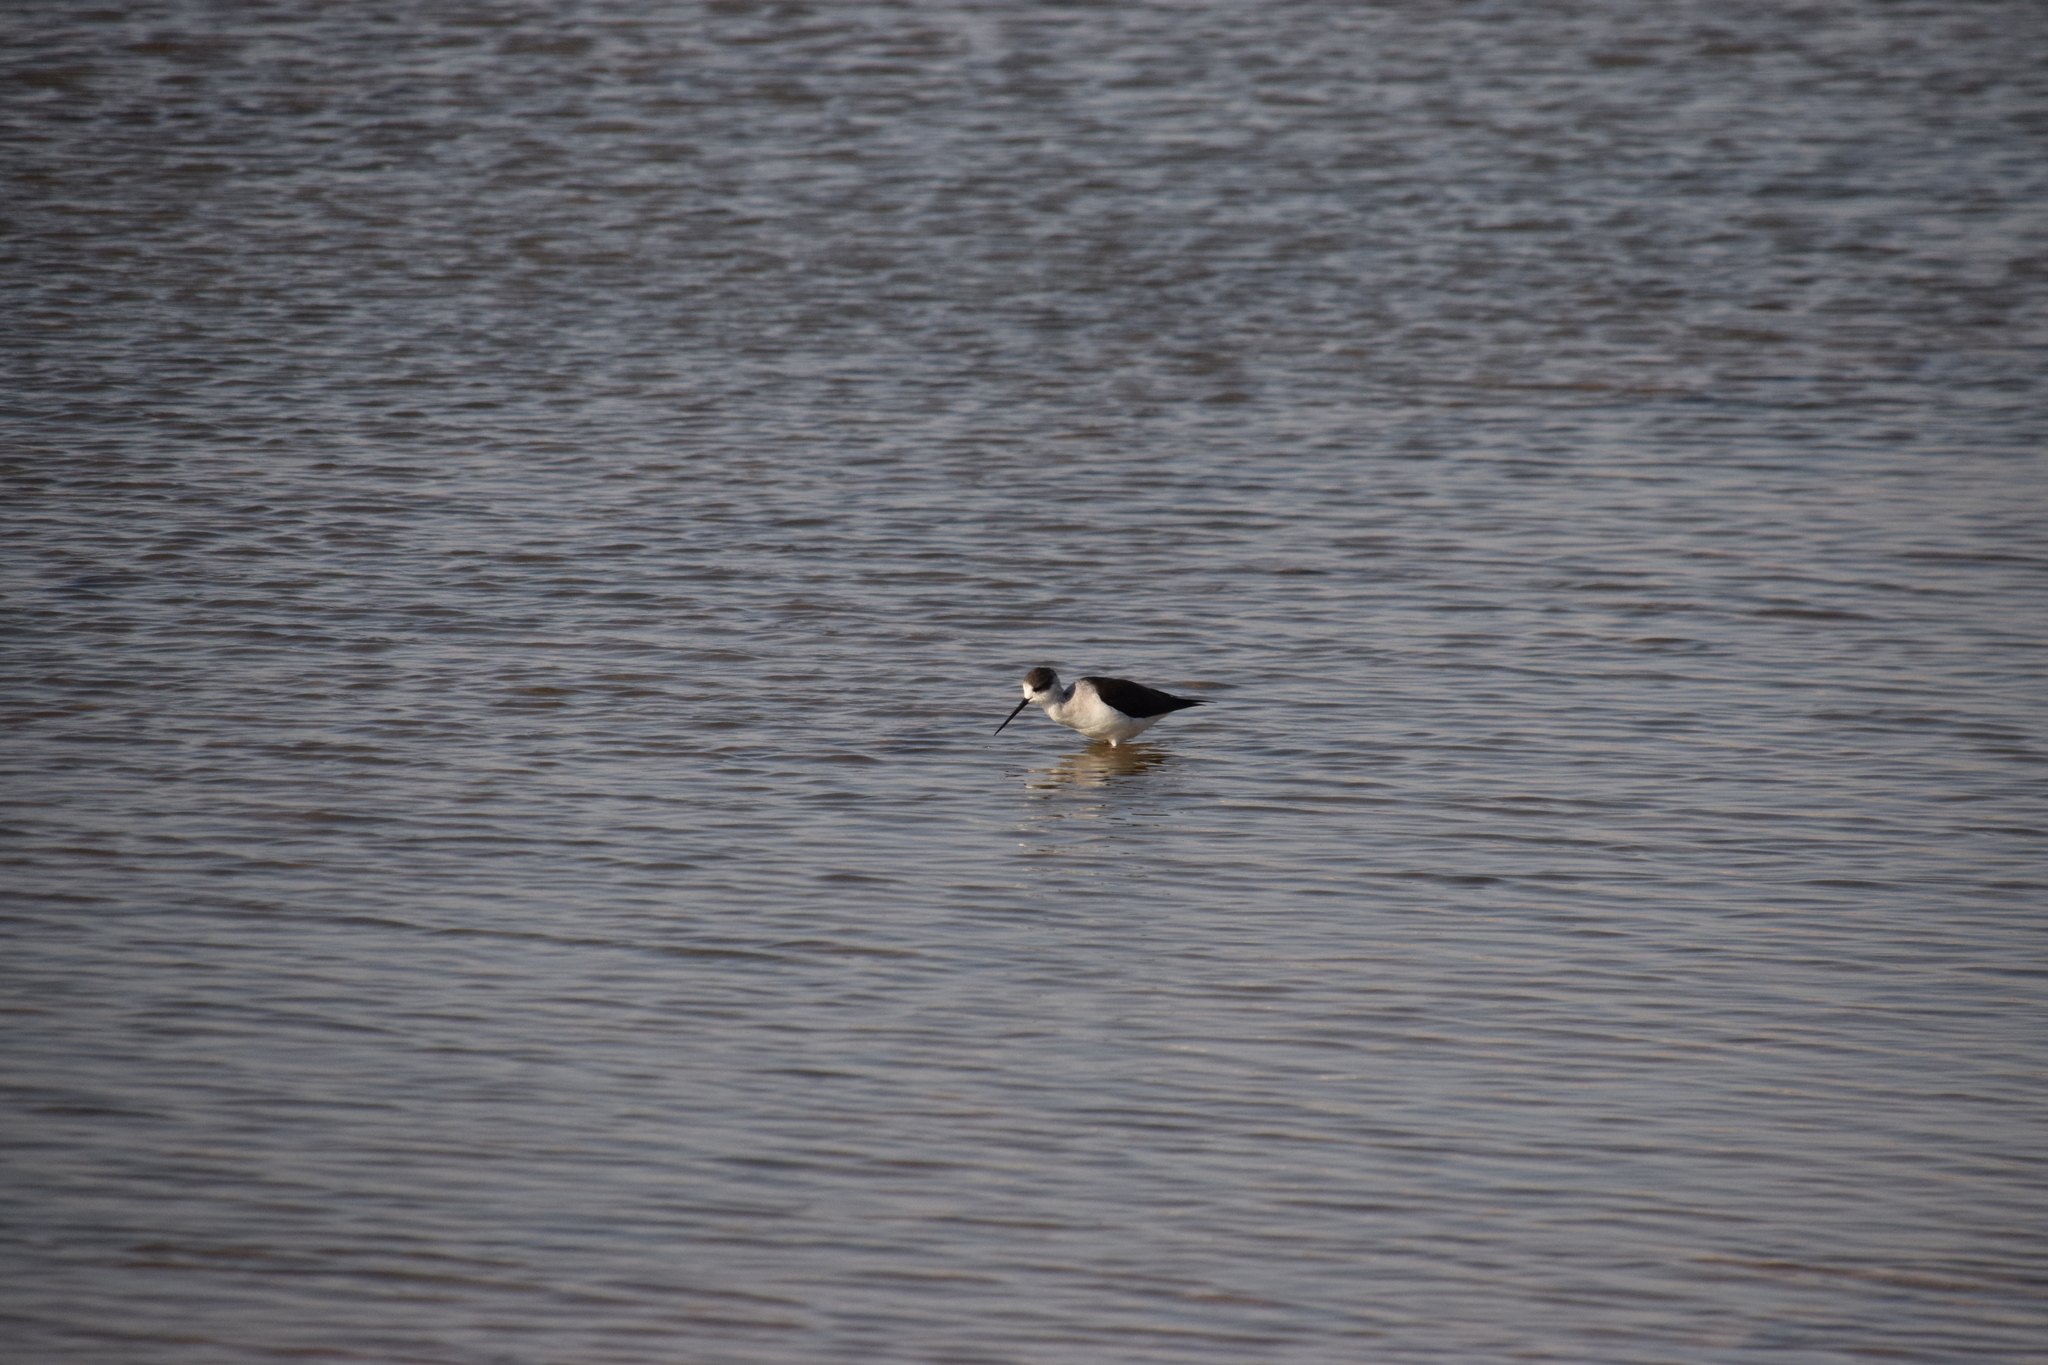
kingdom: Animalia
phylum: Chordata
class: Aves
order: Charadriiformes
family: Recurvirostridae
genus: Himantopus
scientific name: Himantopus himantopus
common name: Black-winged stilt
